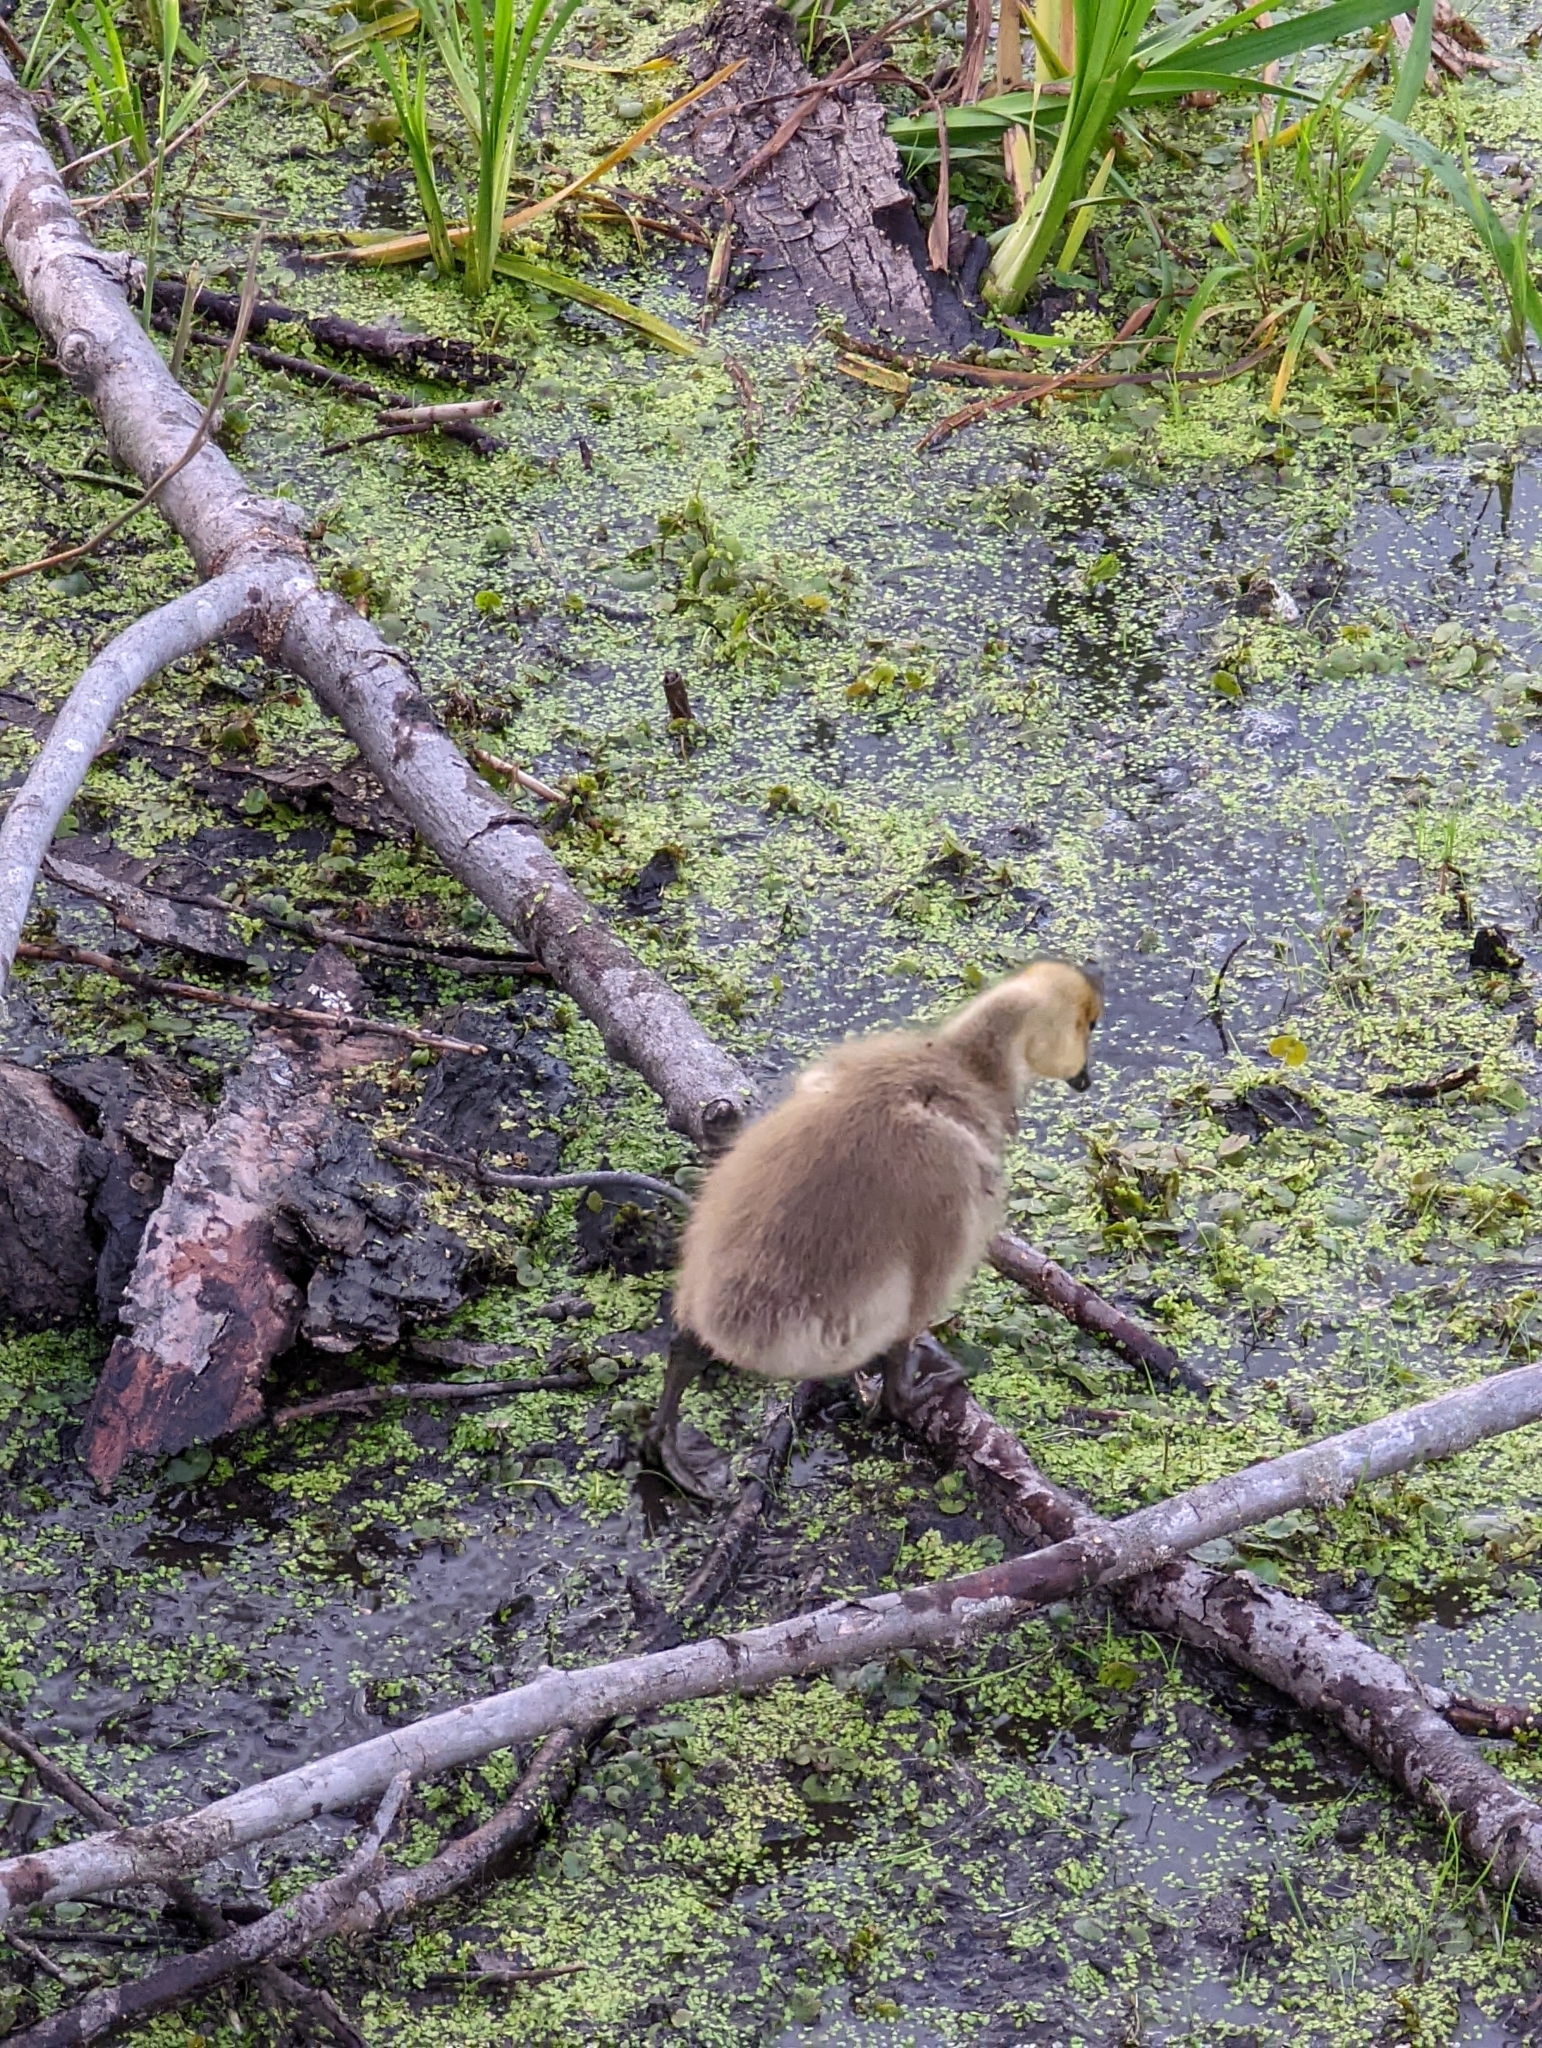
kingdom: Animalia
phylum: Chordata
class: Aves
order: Anseriformes
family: Anatidae
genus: Branta
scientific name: Branta canadensis
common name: Canada goose
